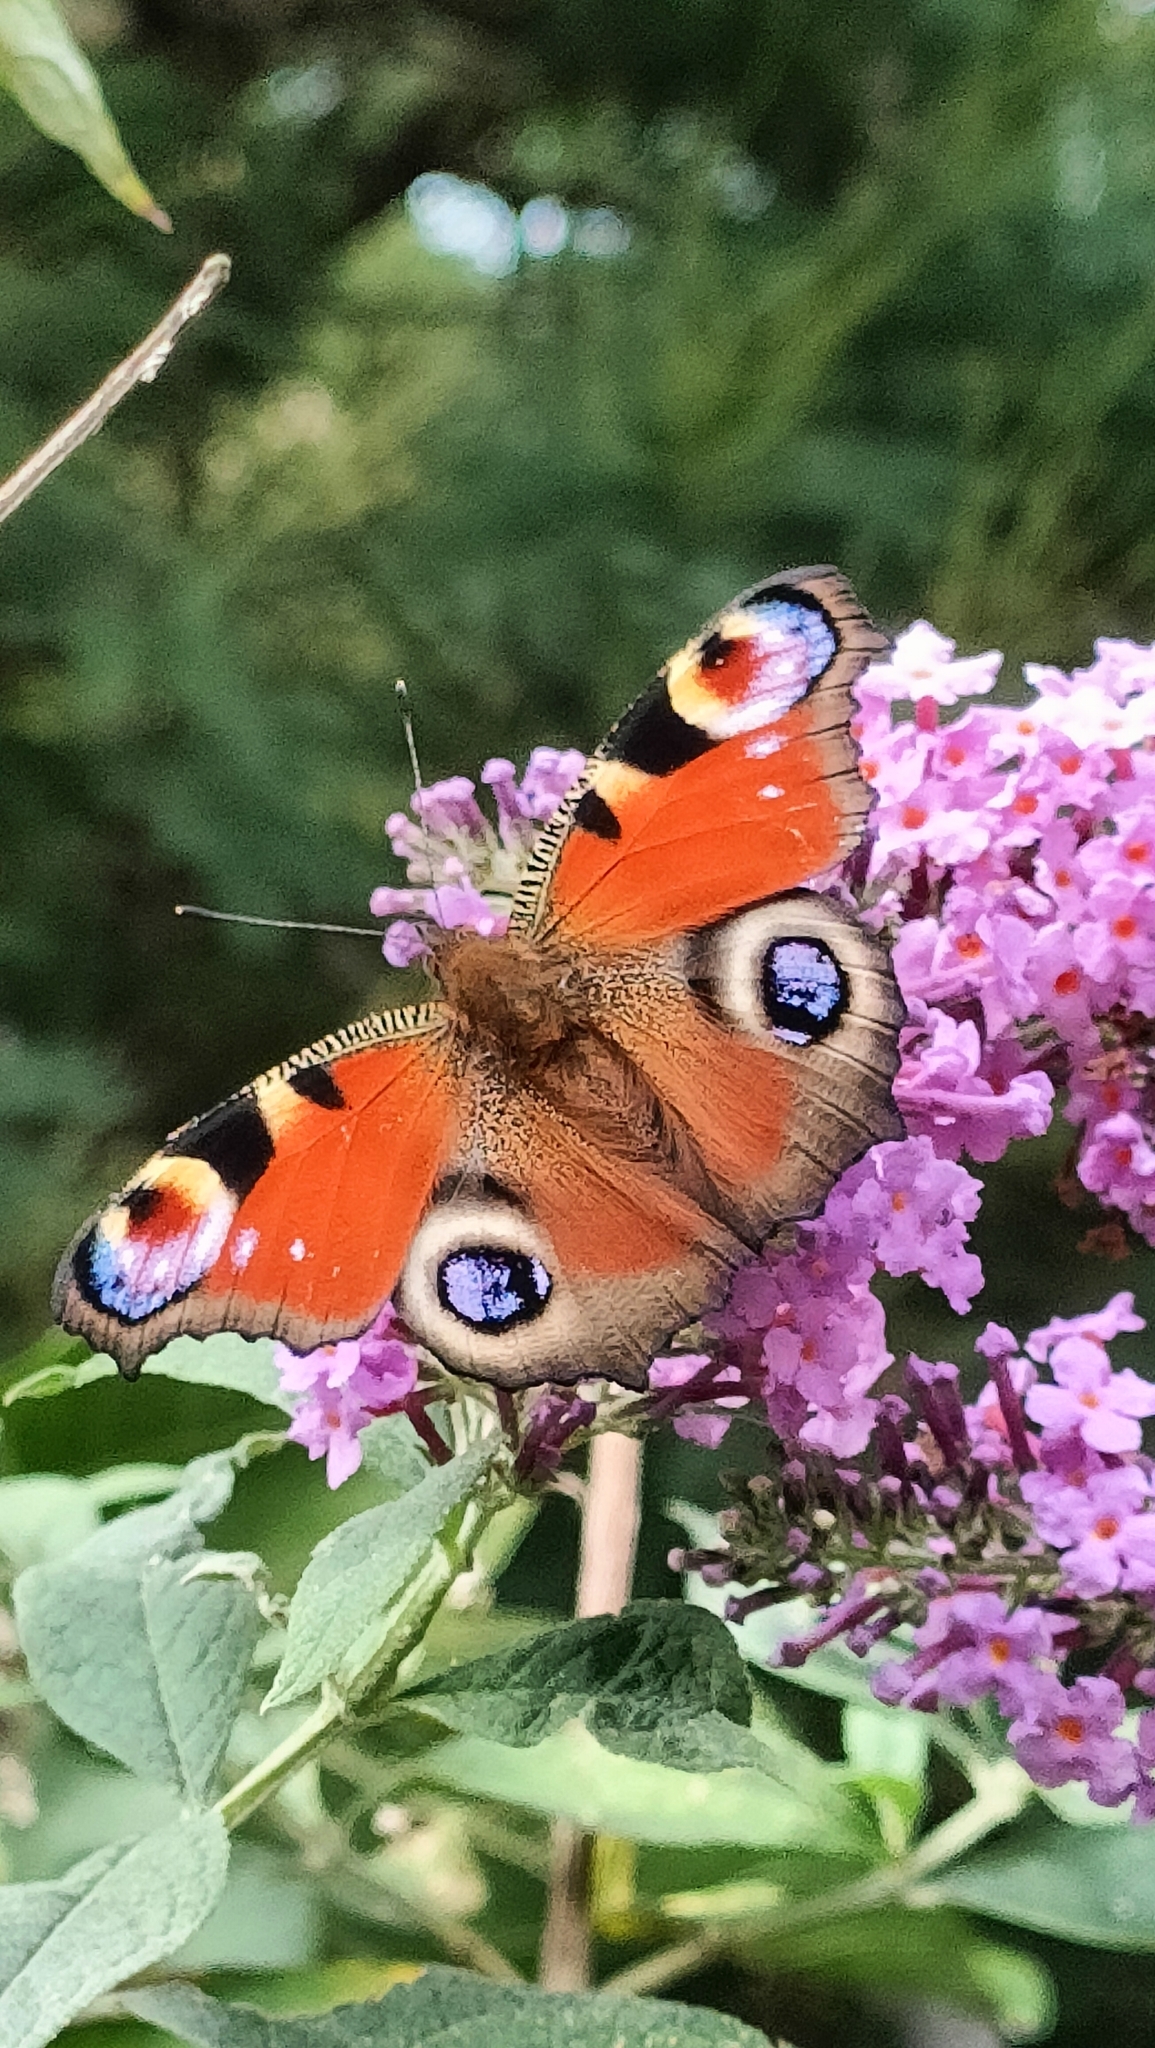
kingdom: Animalia
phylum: Arthropoda
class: Insecta
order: Lepidoptera
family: Nymphalidae
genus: Aglais
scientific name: Aglais io
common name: Peacock
